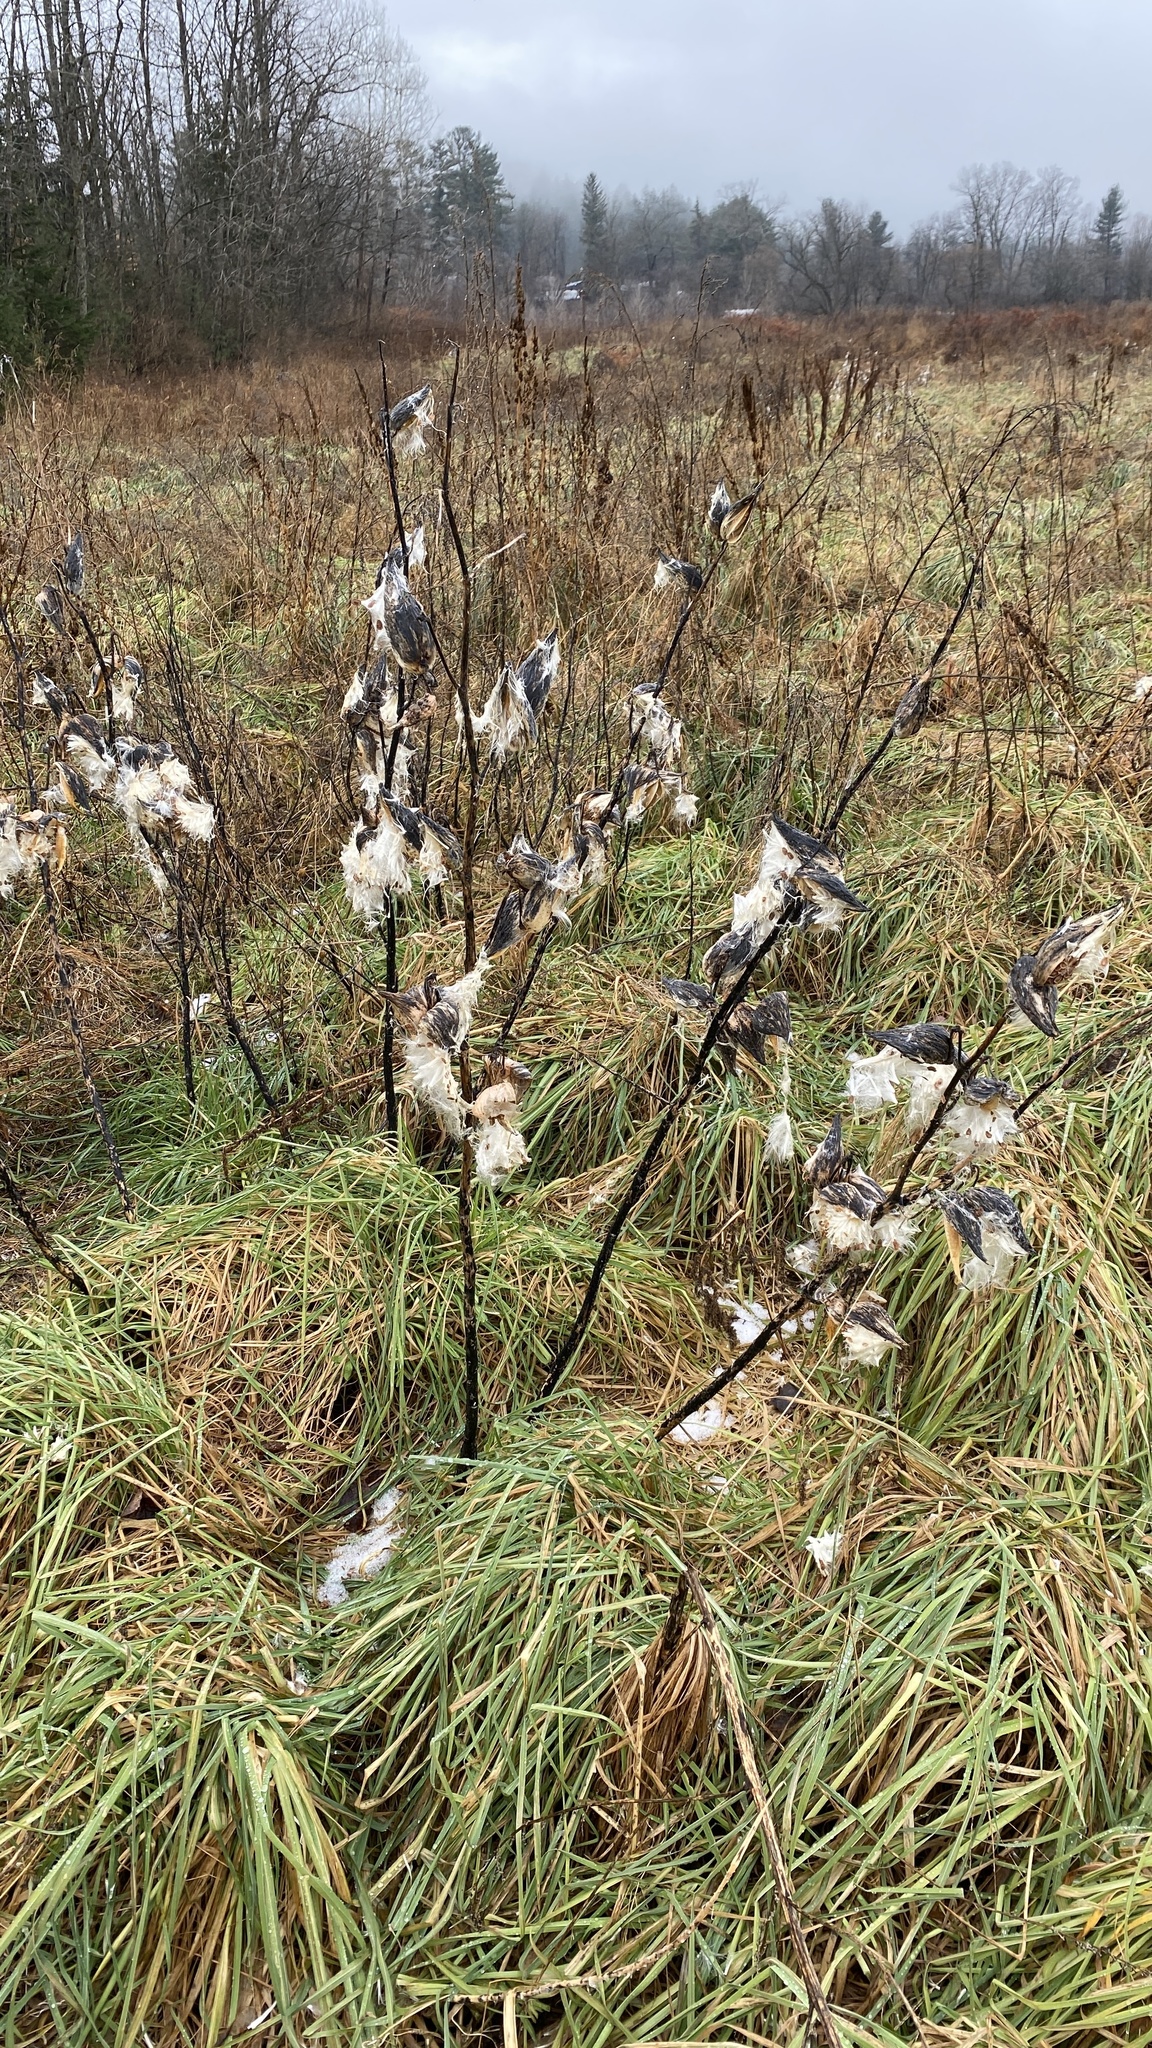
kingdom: Plantae
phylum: Tracheophyta
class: Magnoliopsida
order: Gentianales
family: Apocynaceae
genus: Asclepias
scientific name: Asclepias syriaca
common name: Common milkweed
